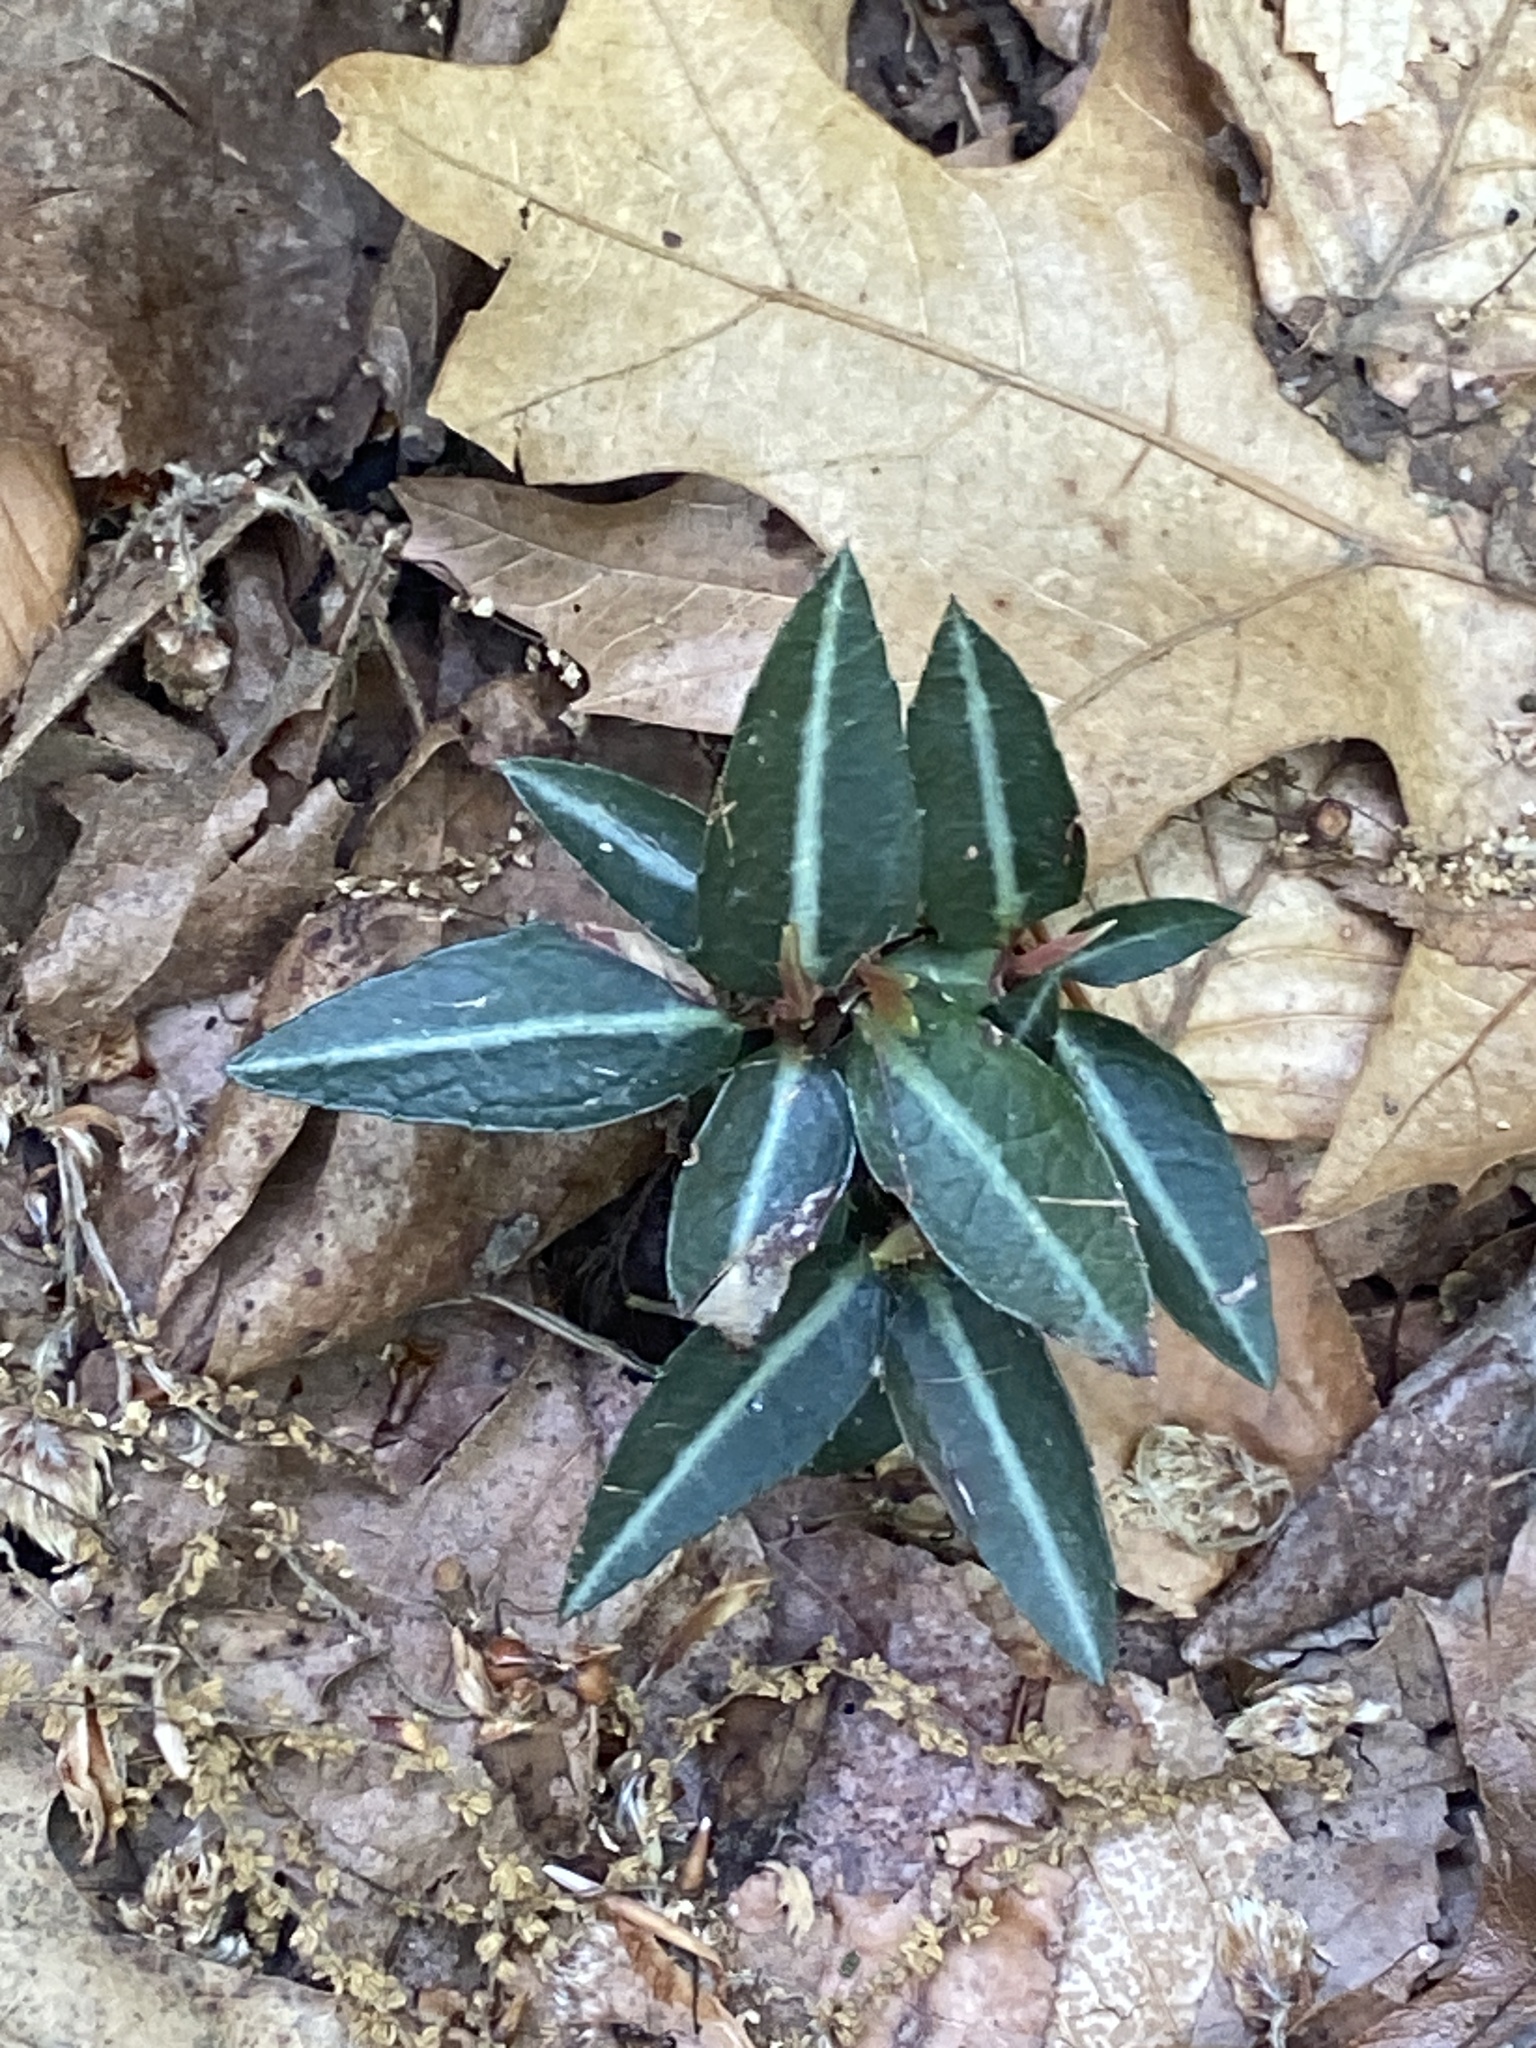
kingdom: Plantae
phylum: Tracheophyta
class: Magnoliopsida
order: Ericales
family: Ericaceae
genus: Chimaphila
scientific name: Chimaphila maculata
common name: Spotted pipsissewa
